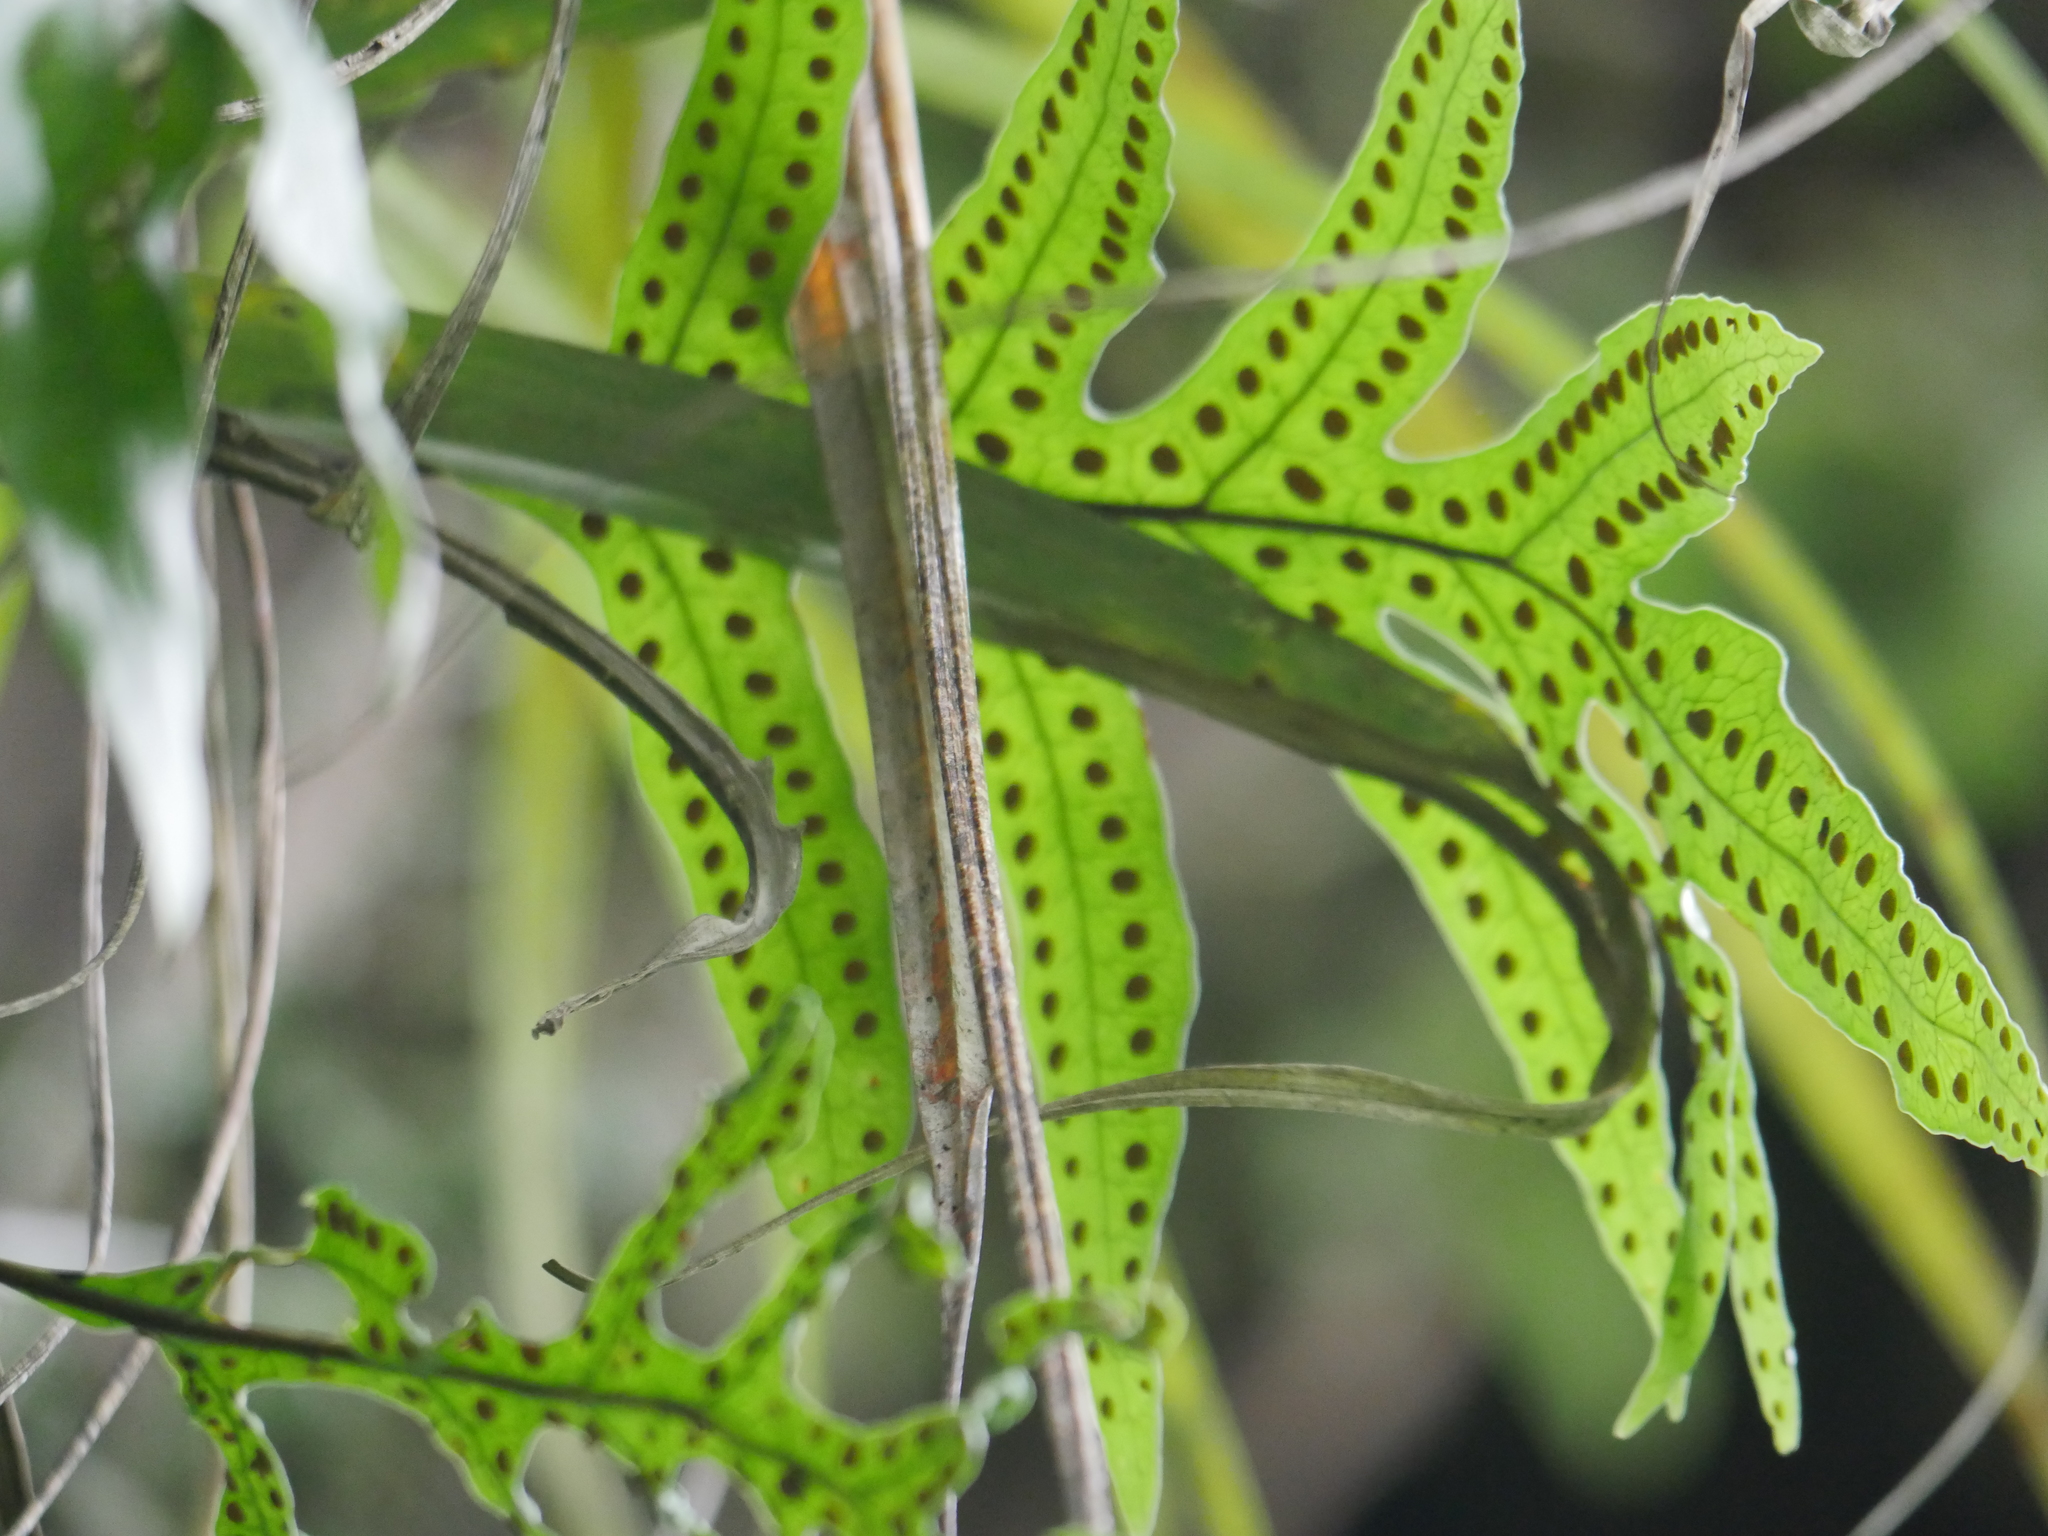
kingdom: Plantae
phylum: Tracheophyta
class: Polypodiopsida
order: Polypodiales
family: Polypodiaceae
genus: Lecanopteris
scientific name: Lecanopteris pustulata
